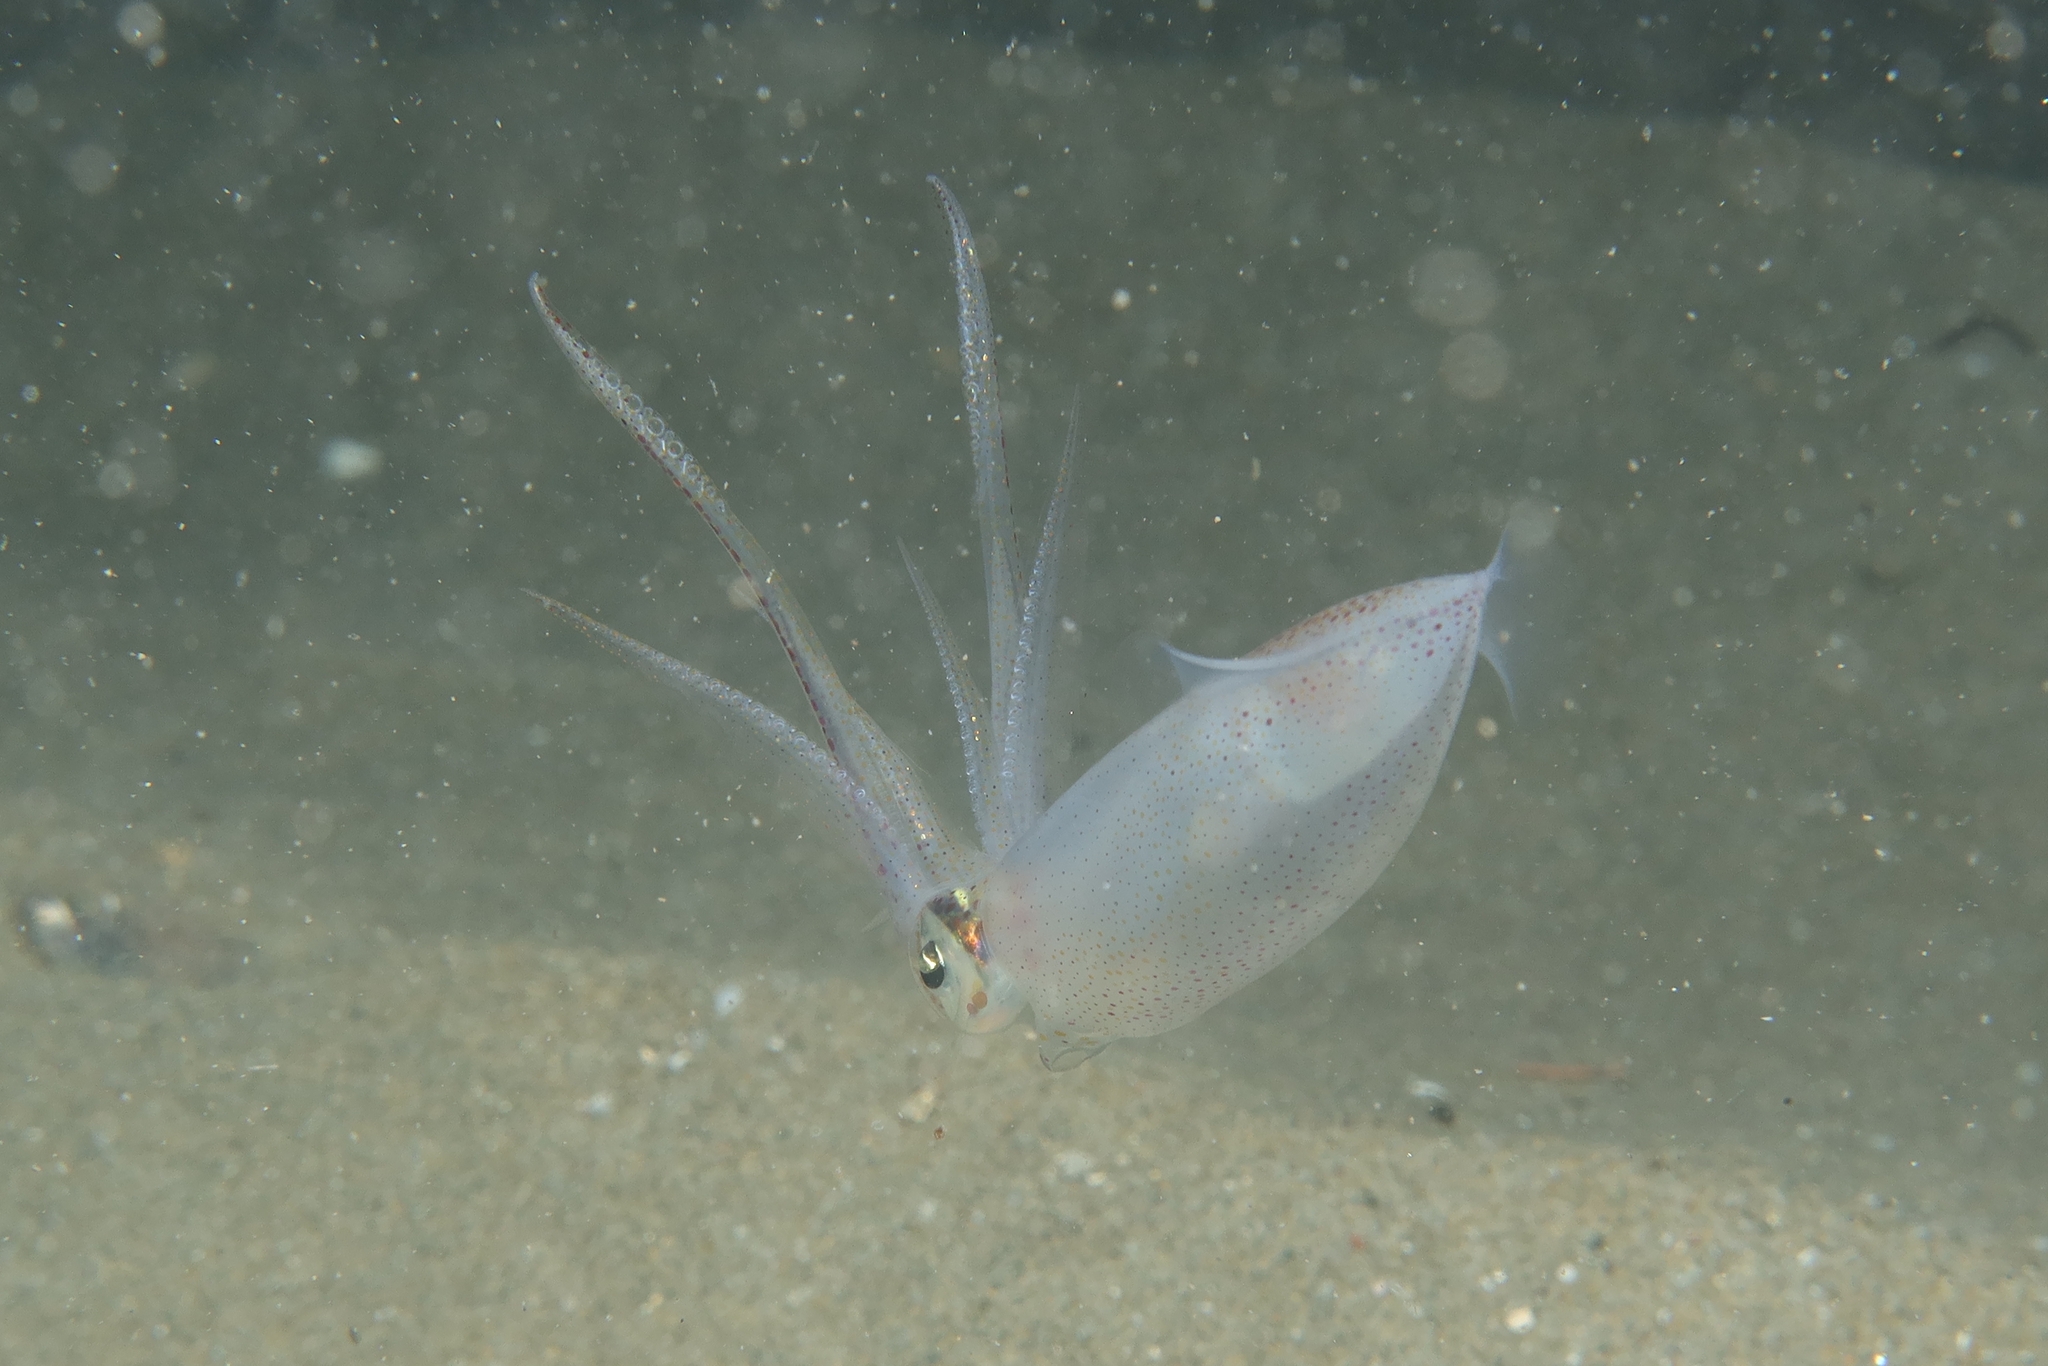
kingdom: Animalia
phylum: Mollusca
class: Cephalopoda
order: Myopsida
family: Loliginidae
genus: Alloteuthis
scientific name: Alloteuthis media
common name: Little squid
